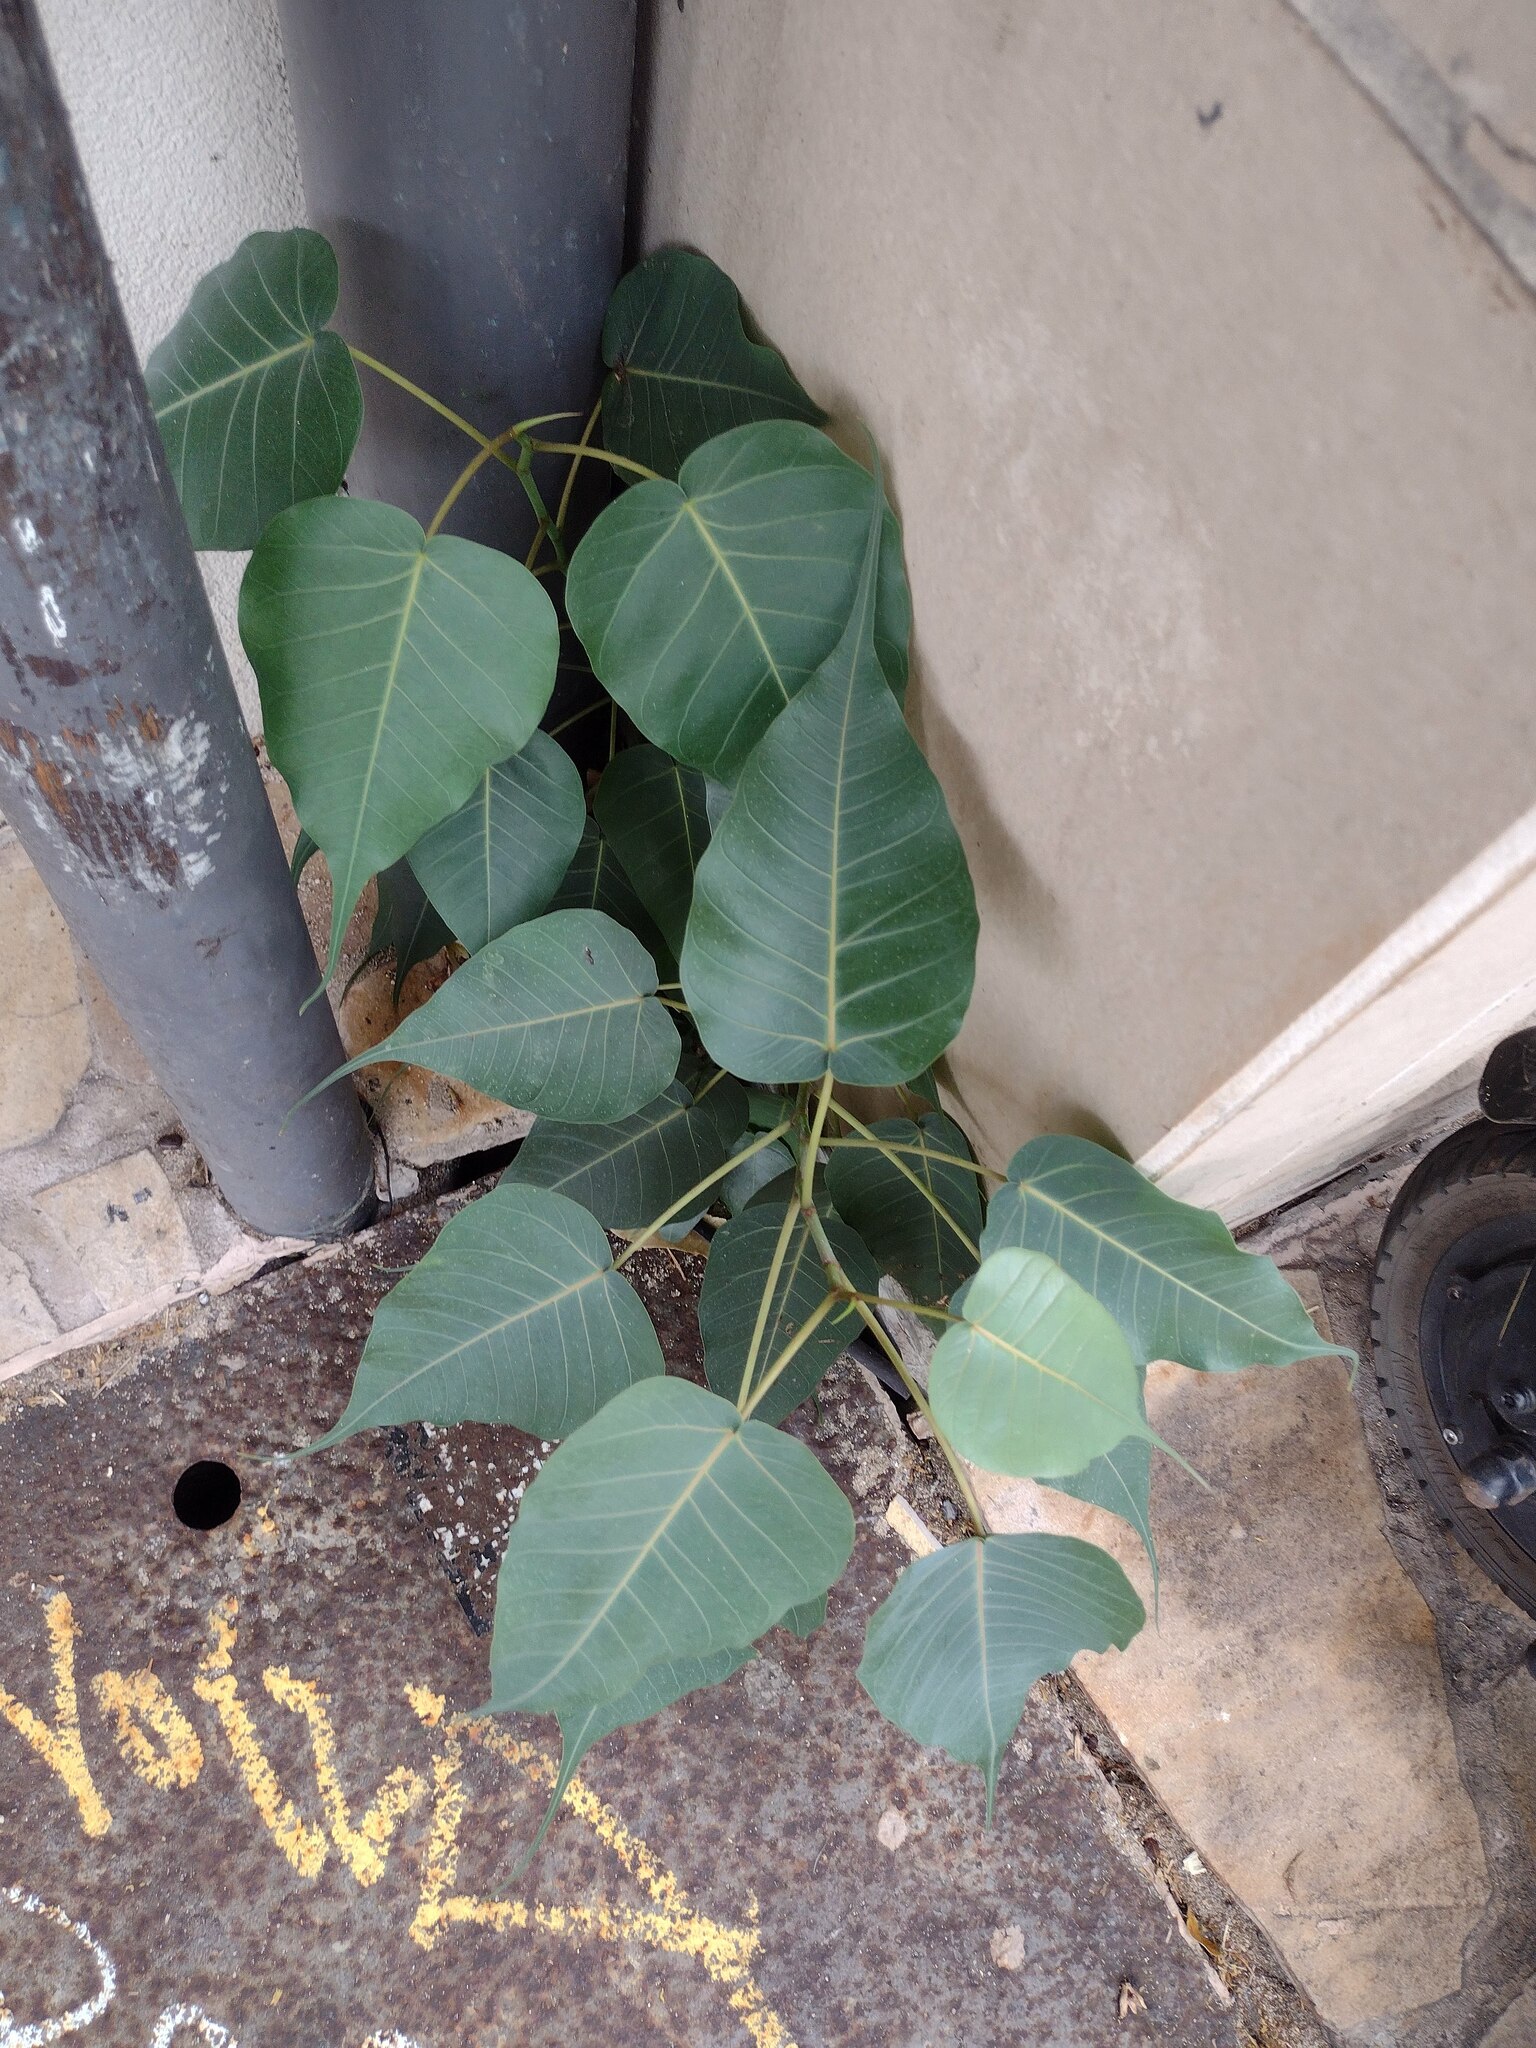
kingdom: Plantae
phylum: Tracheophyta
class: Magnoliopsida
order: Rosales
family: Moraceae
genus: Ficus
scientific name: Ficus religiosa
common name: Bodhi tree
